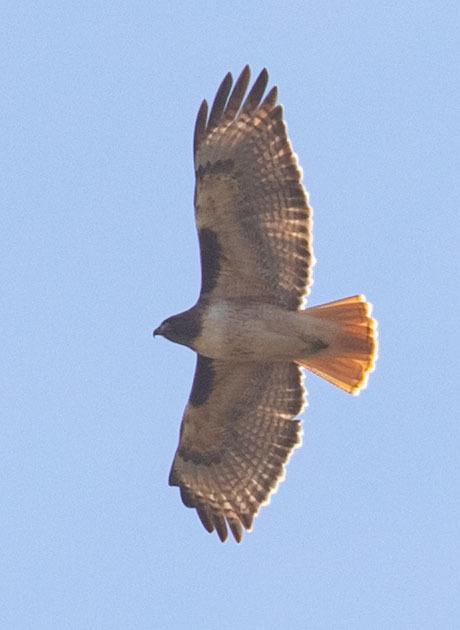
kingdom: Animalia
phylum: Chordata
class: Aves
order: Accipitriformes
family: Accipitridae
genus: Buteo
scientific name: Buteo jamaicensis
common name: Red-tailed hawk
